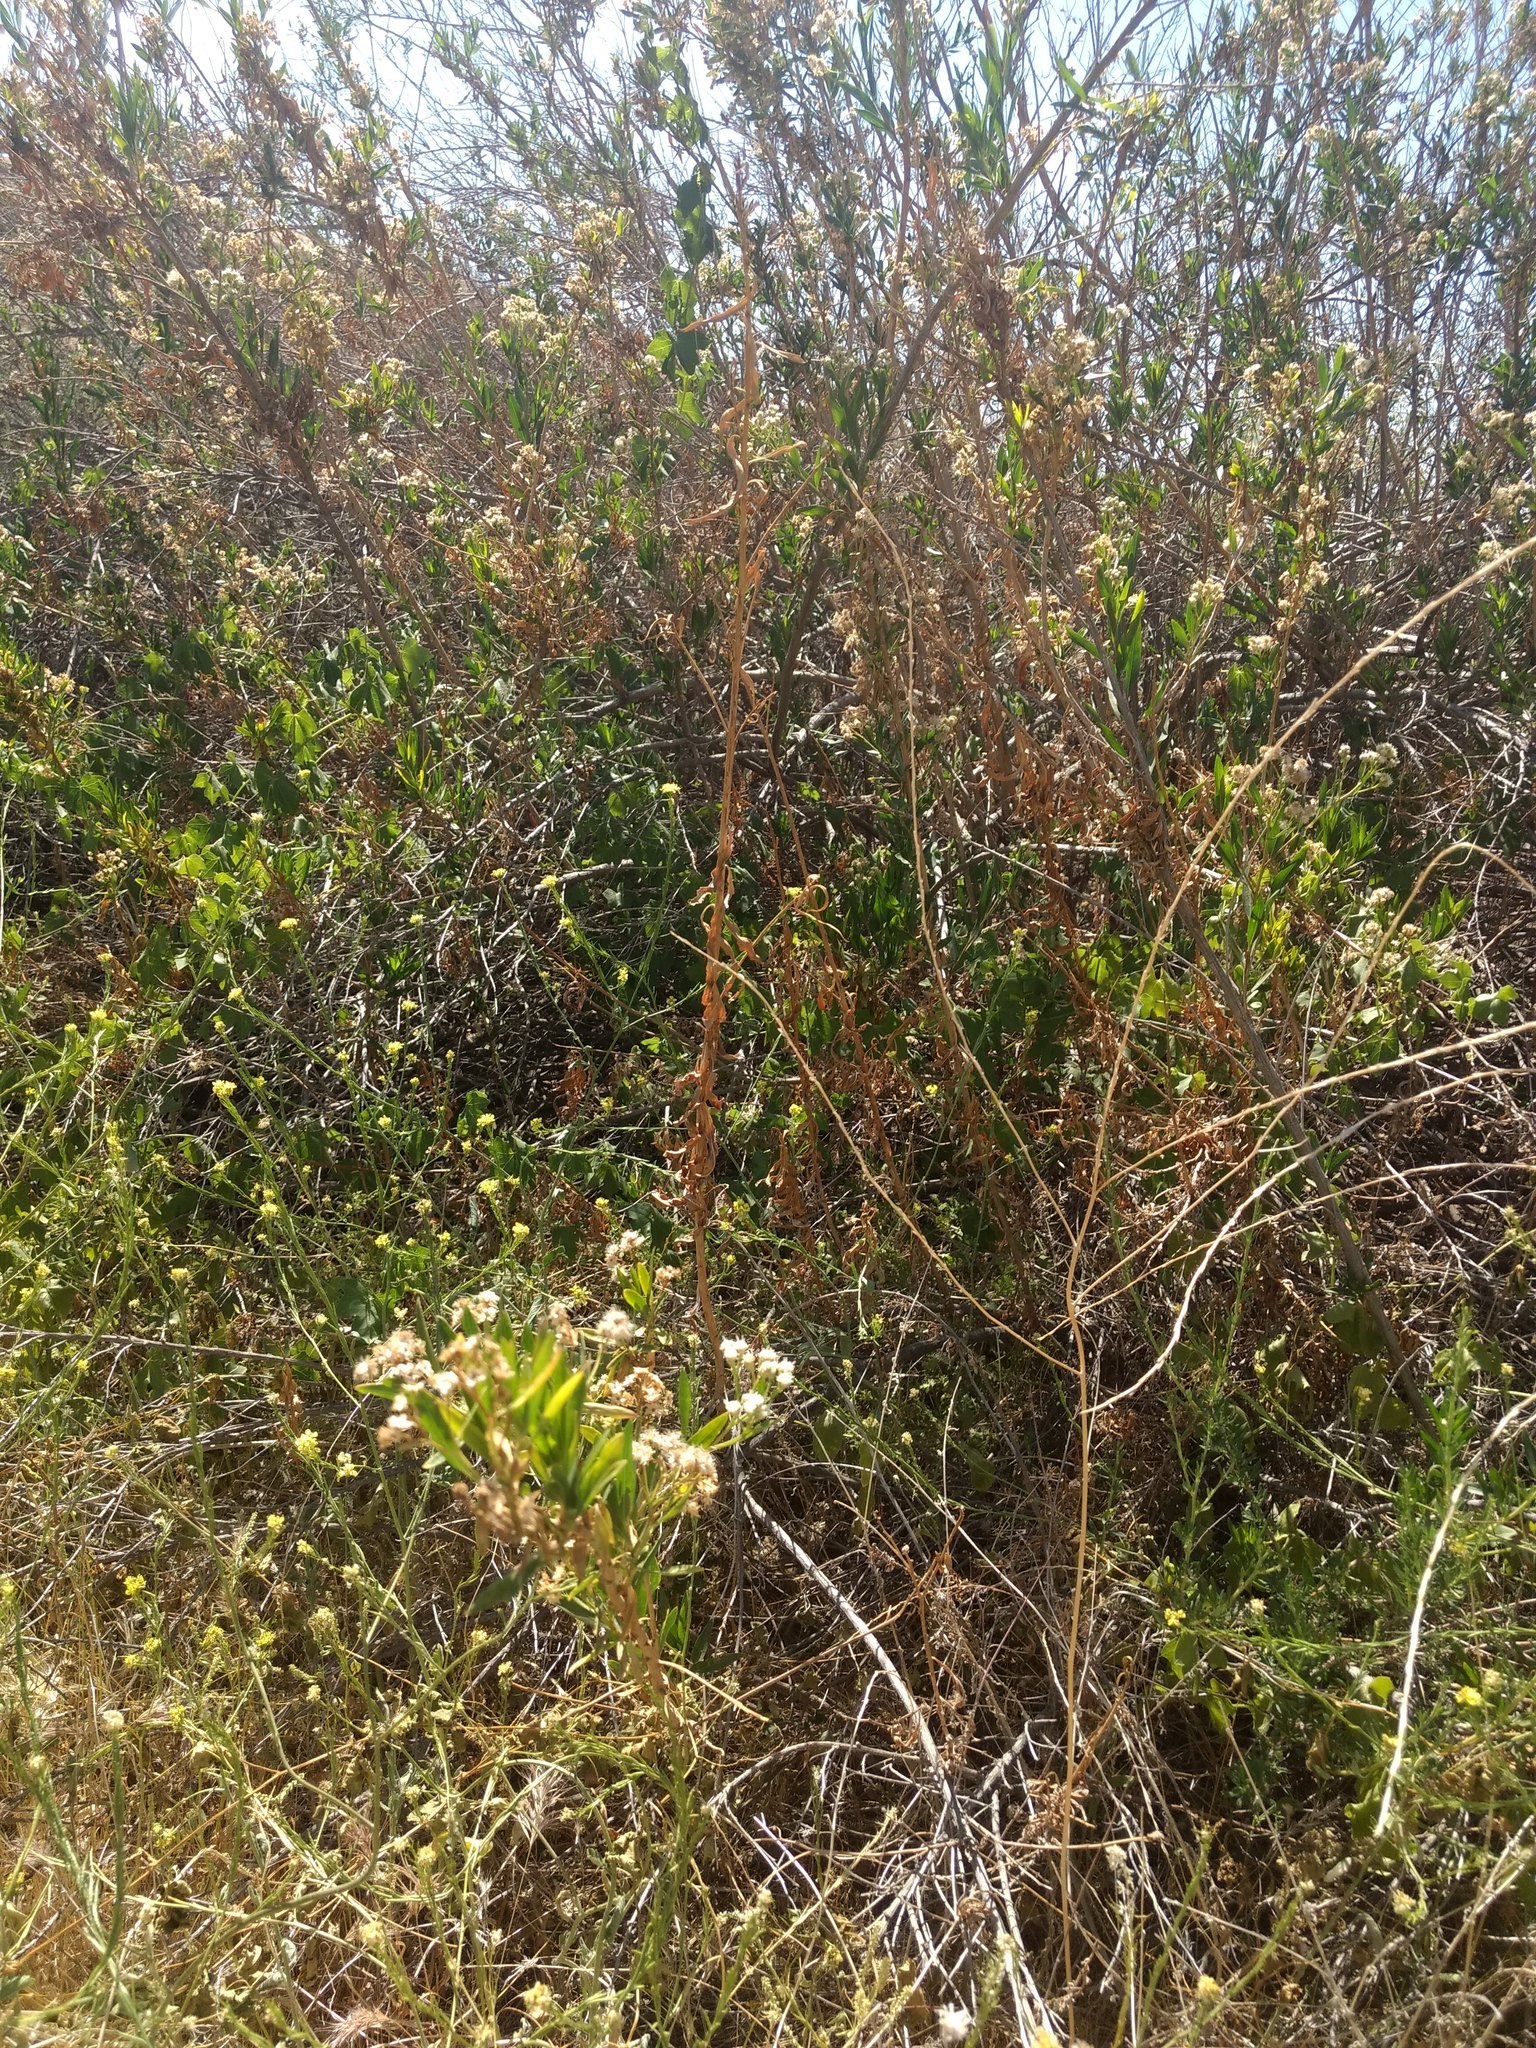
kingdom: Plantae
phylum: Tracheophyta
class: Magnoliopsida
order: Asterales
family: Asteraceae
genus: Baccharis
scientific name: Baccharis salicifolia
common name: Sticky baccharis
